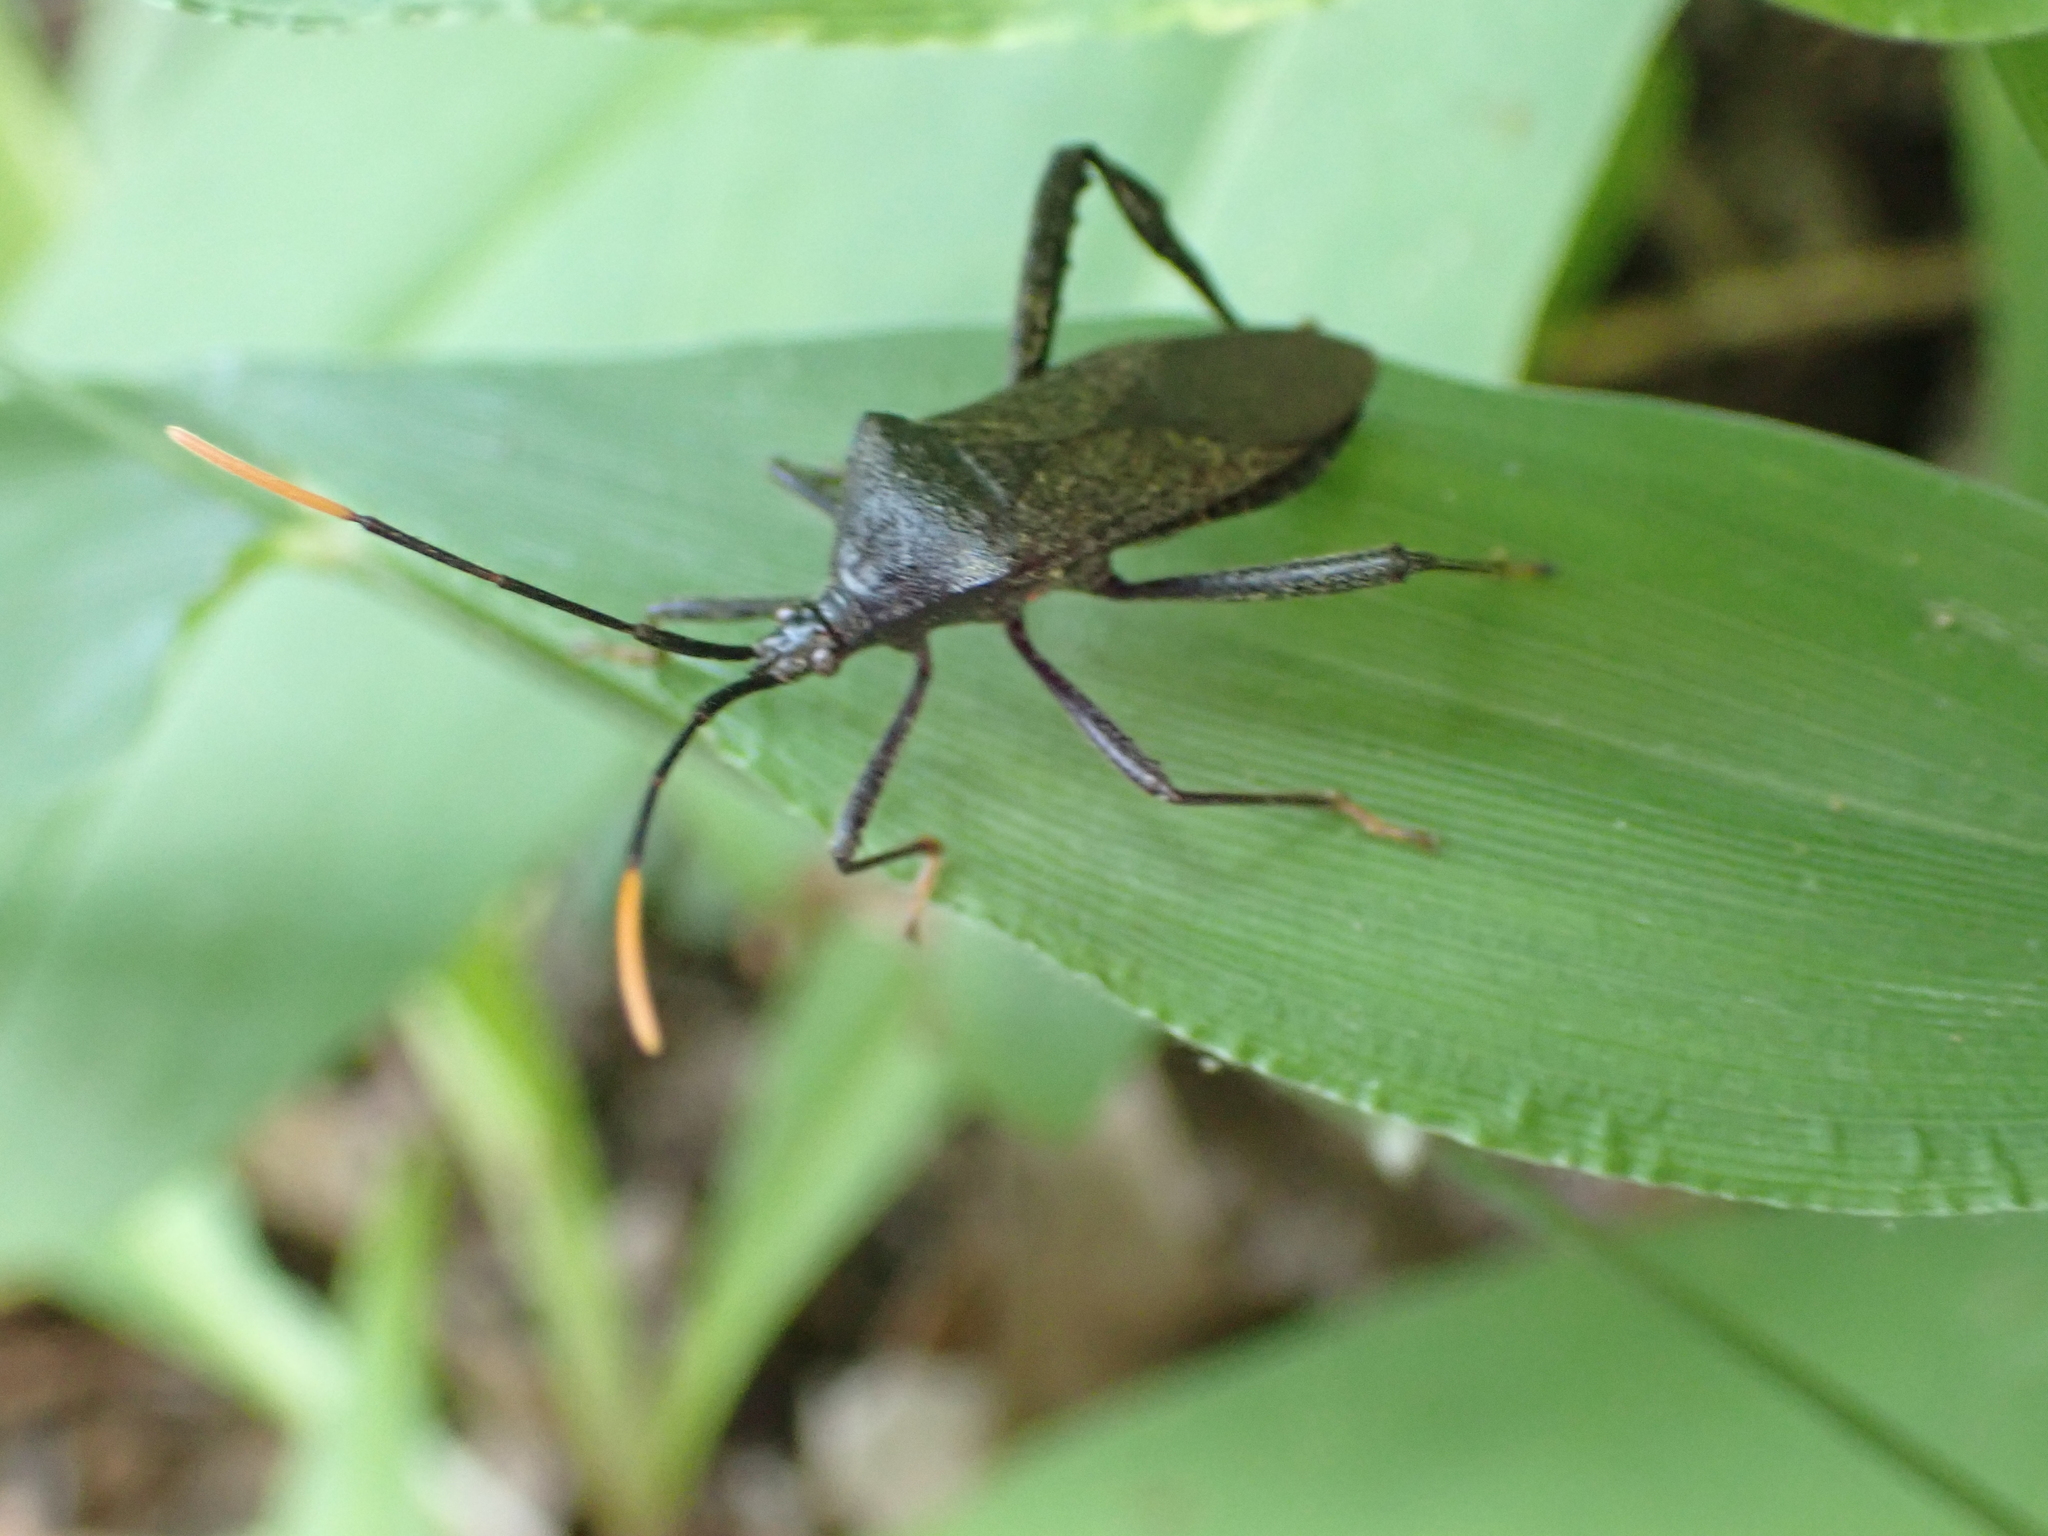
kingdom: Animalia
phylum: Arthropoda
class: Insecta
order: Hemiptera
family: Coreidae
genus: Acanthocephala
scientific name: Acanthocephala terminalis
